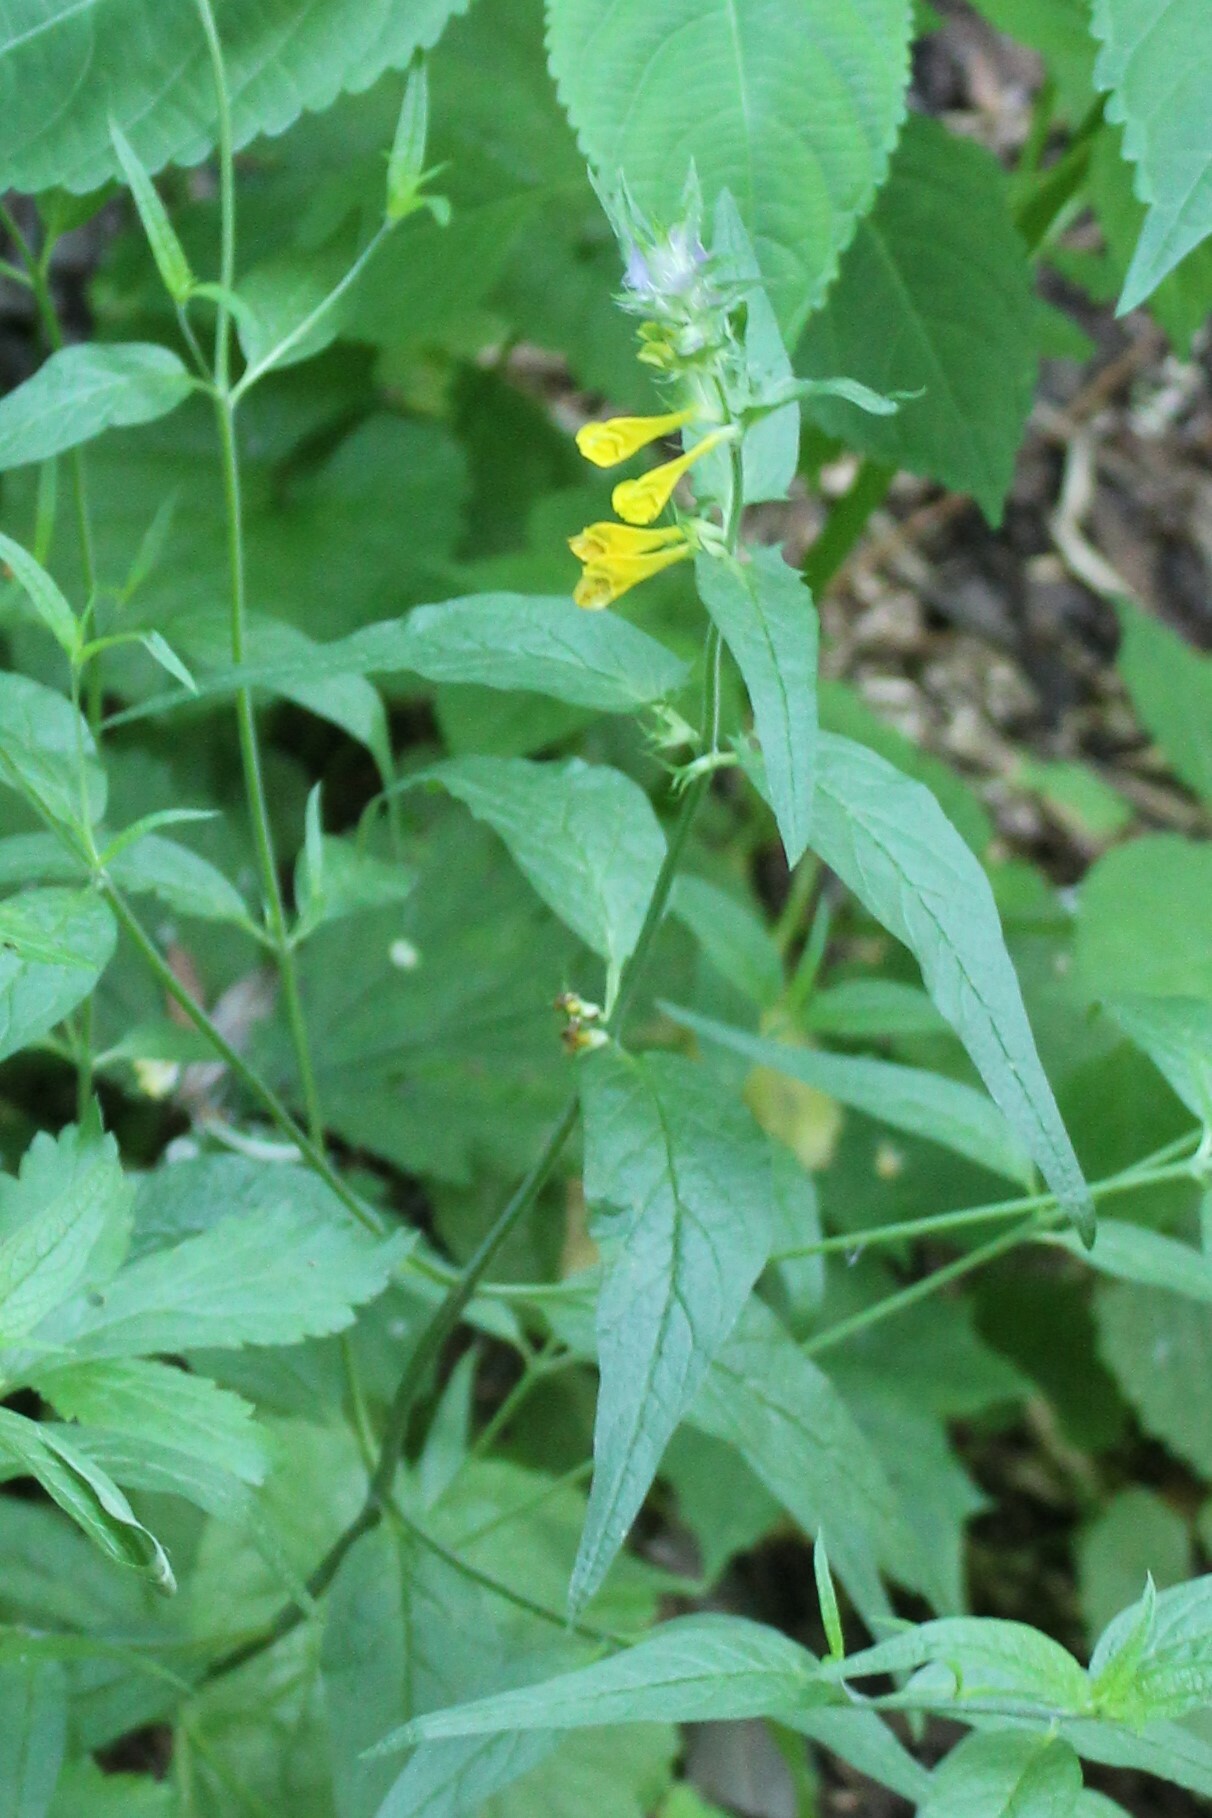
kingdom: Plantae
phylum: Tracheophyta
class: Magnoliopsida
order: Lamiales
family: Orobanchaceae
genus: Melampyrum
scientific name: Melampyrum nemorosum
